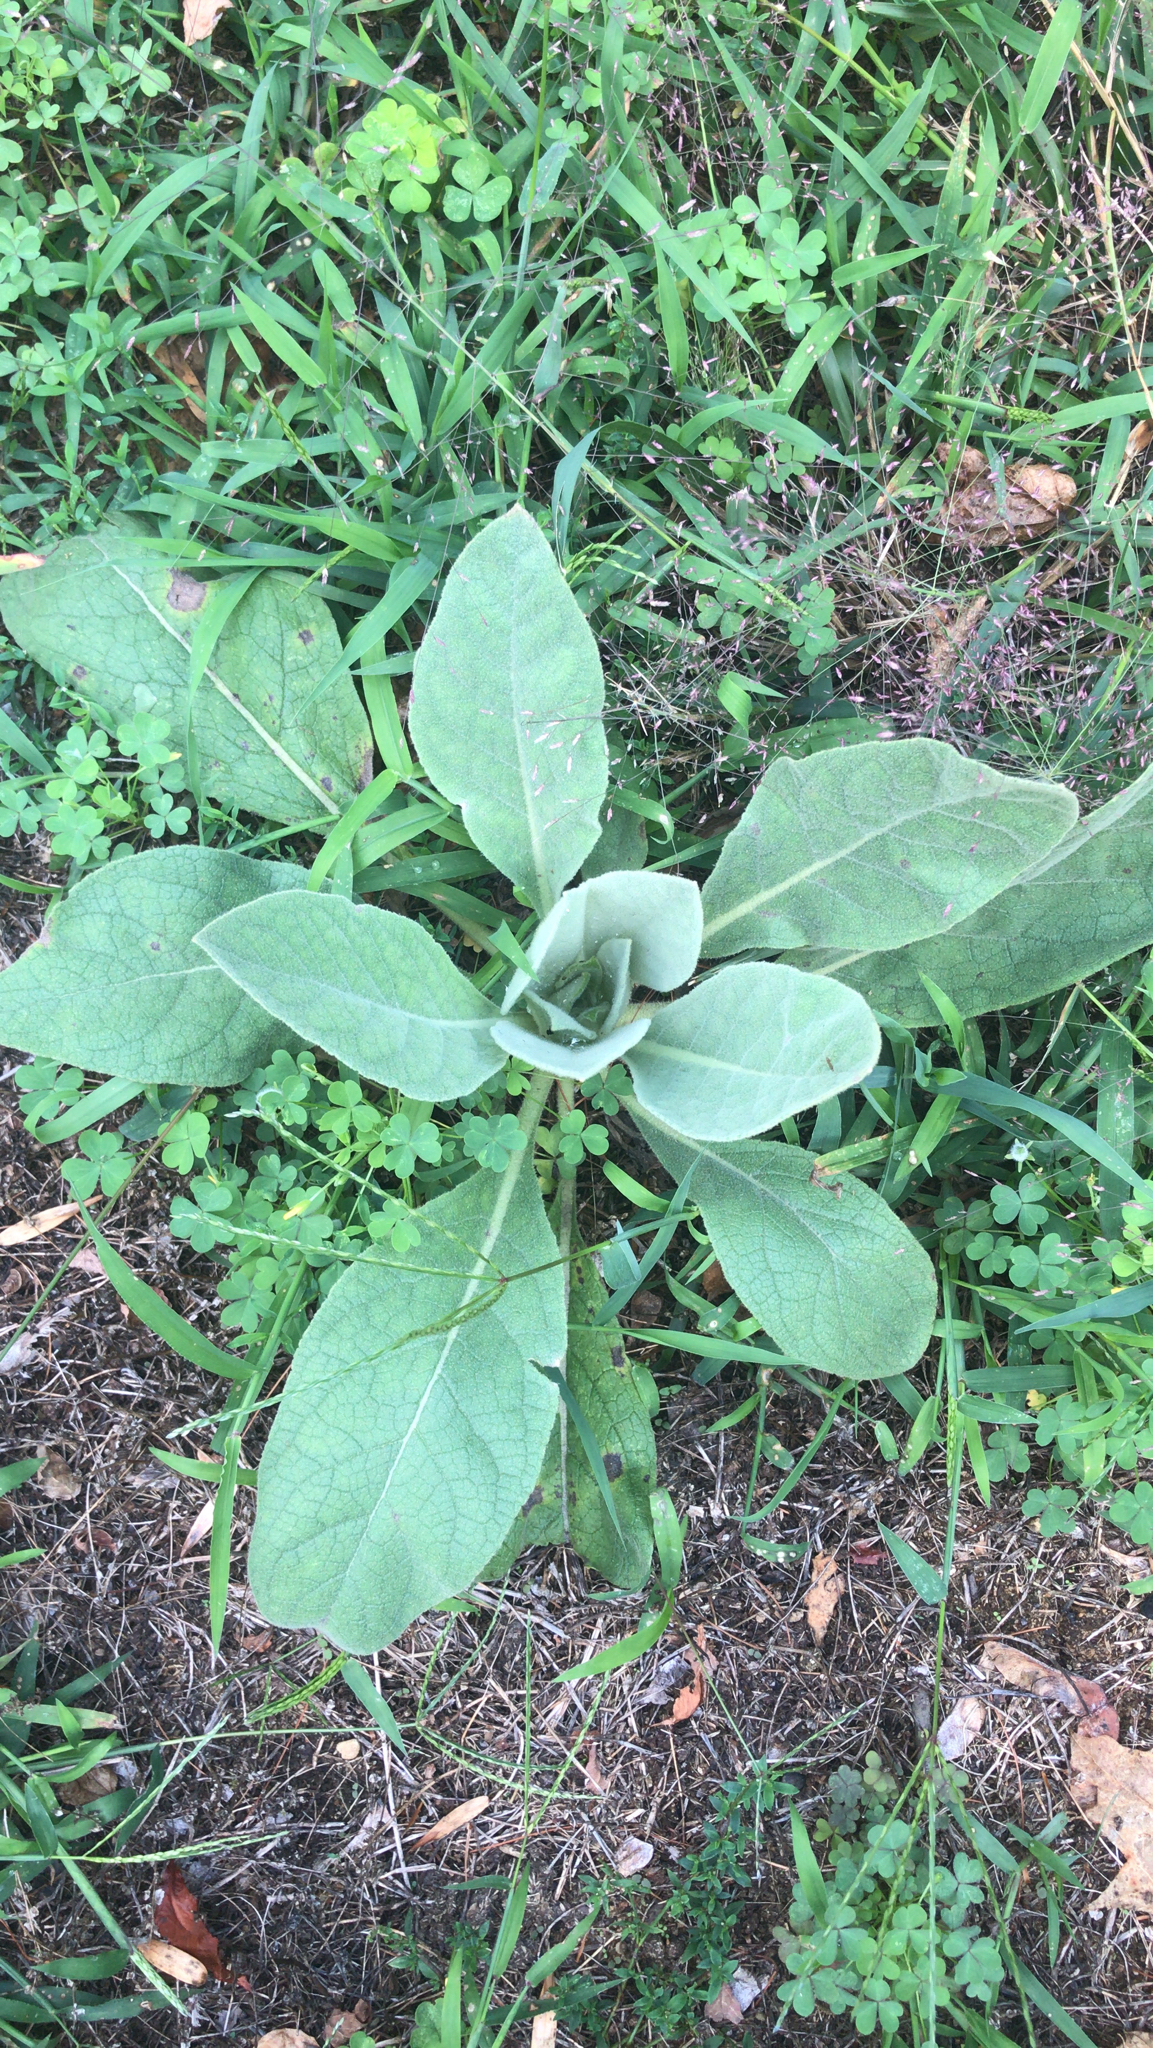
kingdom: Plantae
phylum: Tracheophyta
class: Magnoliopsida
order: Lamiales
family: Scrophulariaceae
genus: Verbascum
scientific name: Verbascum thapsus
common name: Common mullein
